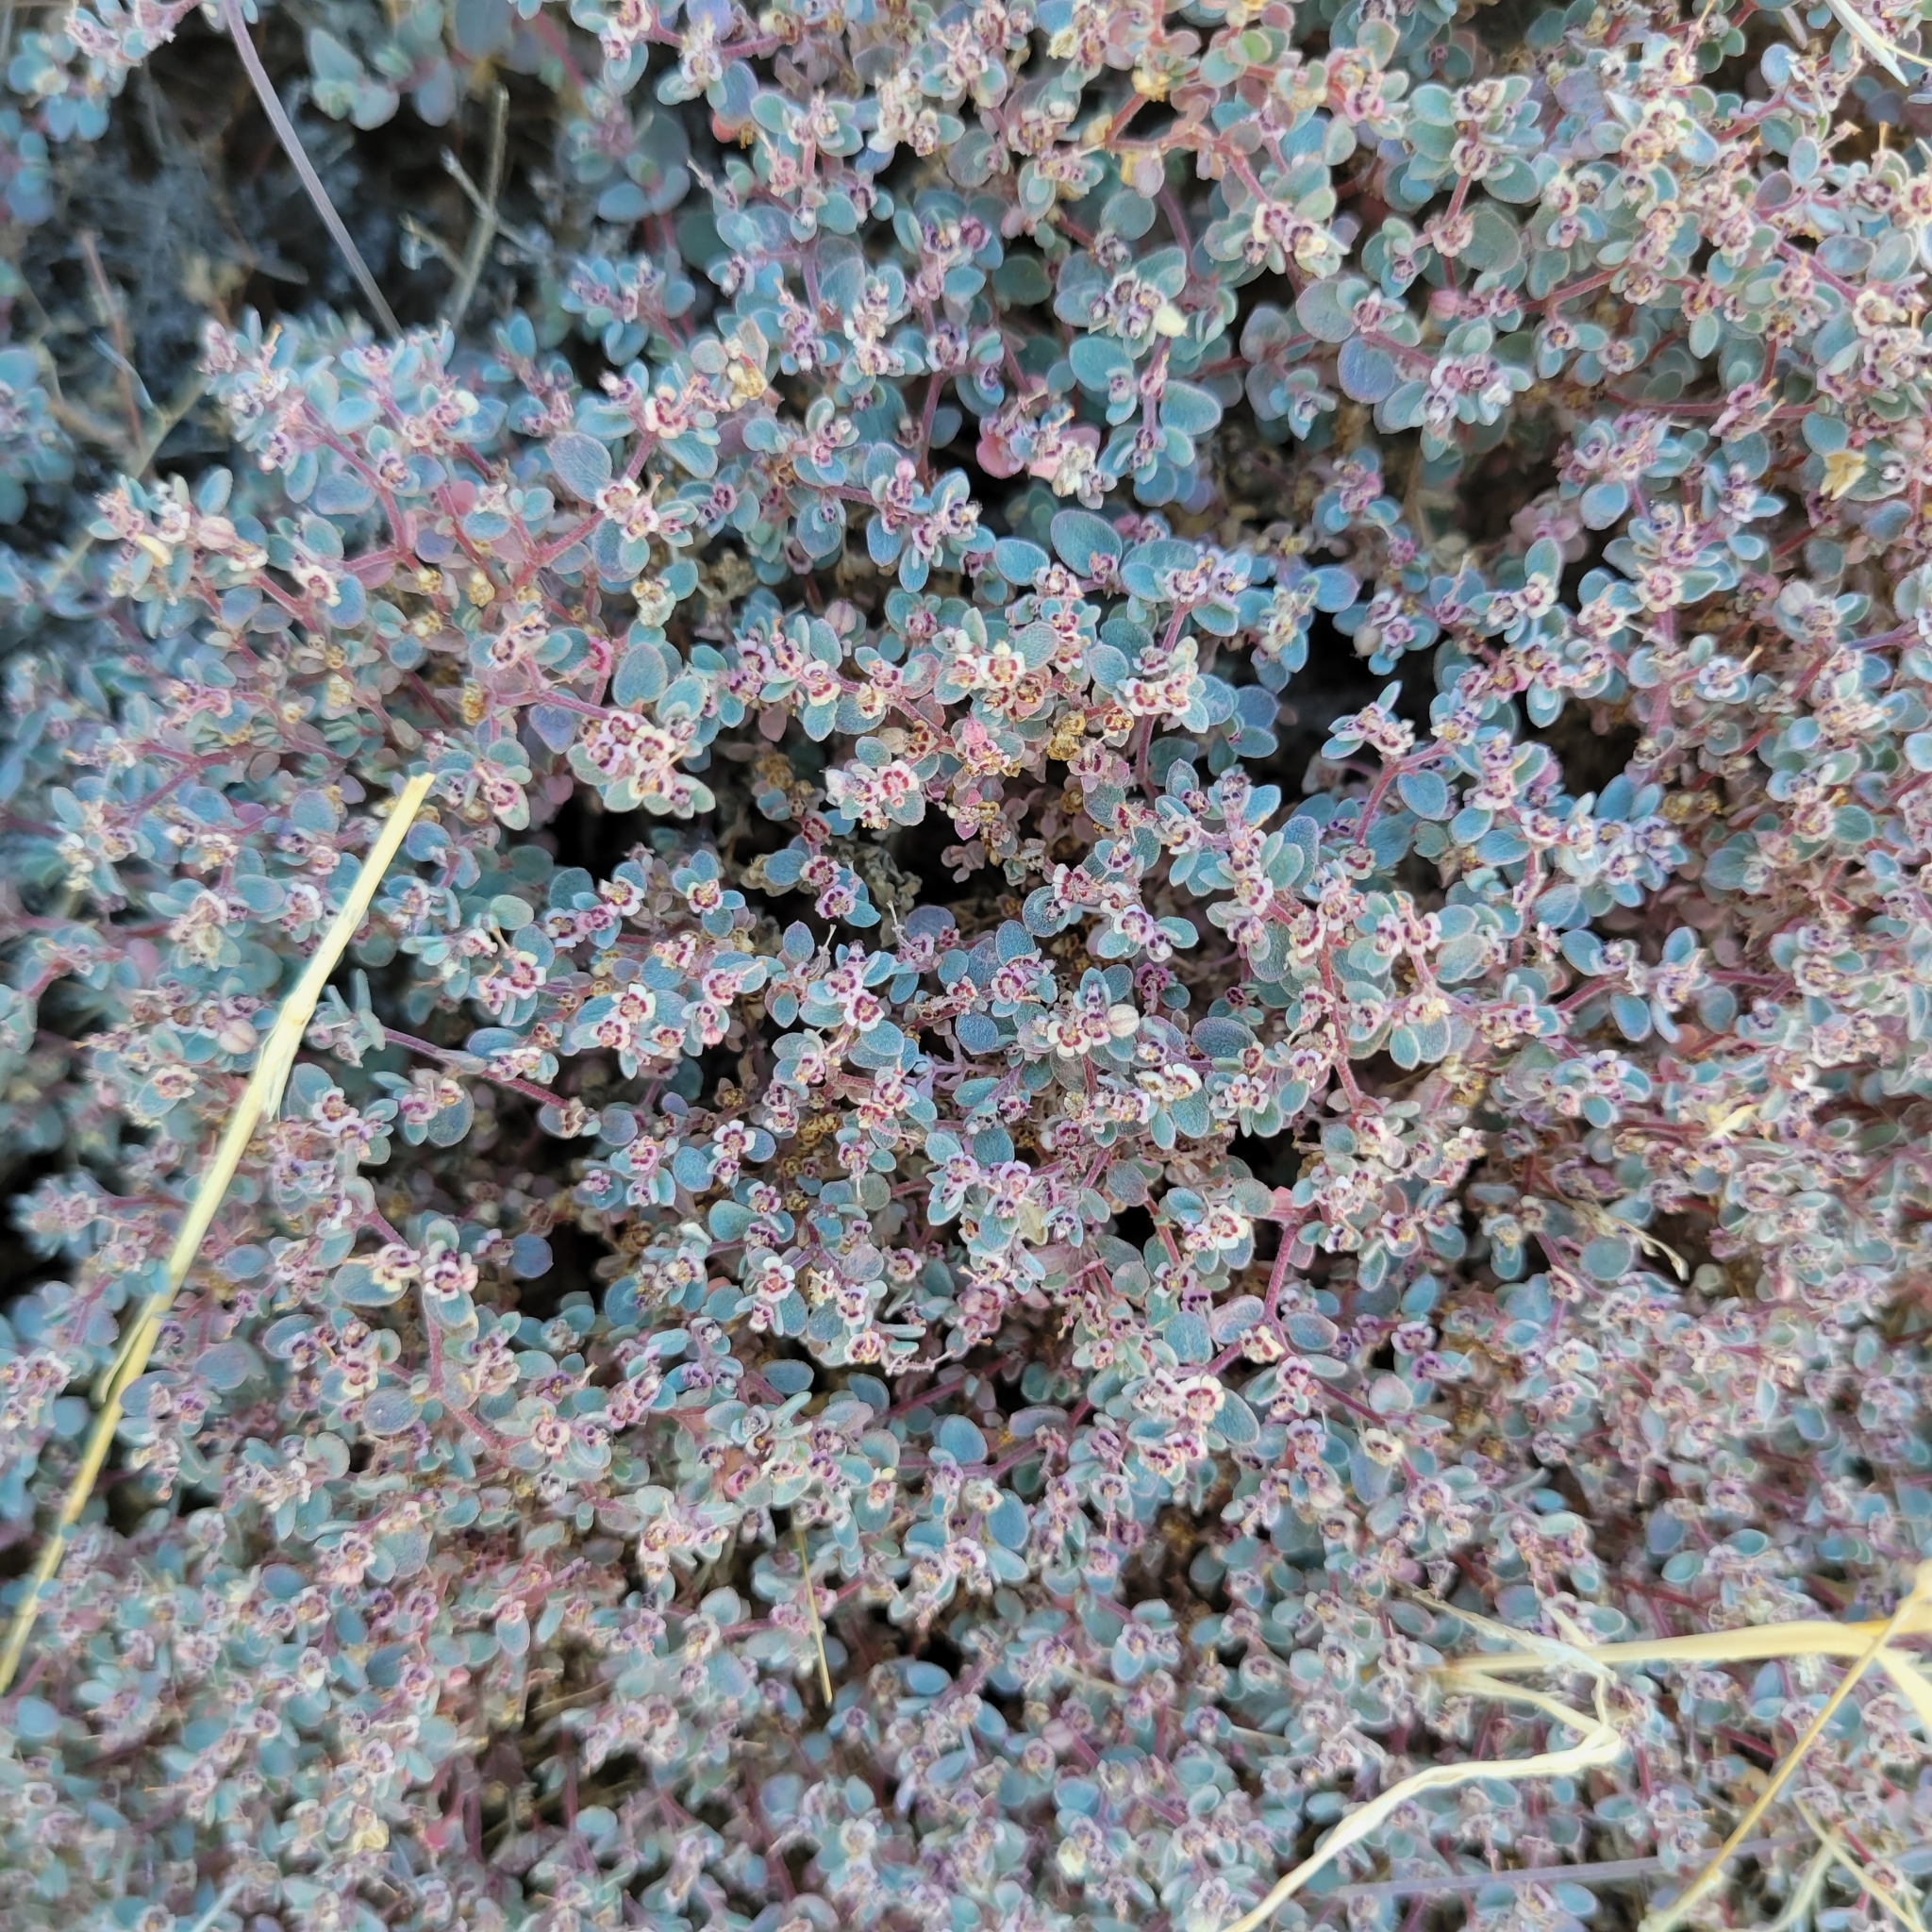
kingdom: Plantae
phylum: Tracheophyta
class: Magnoliopsida
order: Malpighiales
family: Euphorbiaceae
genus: Euphorbia
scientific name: Euphorbia melanadenia
